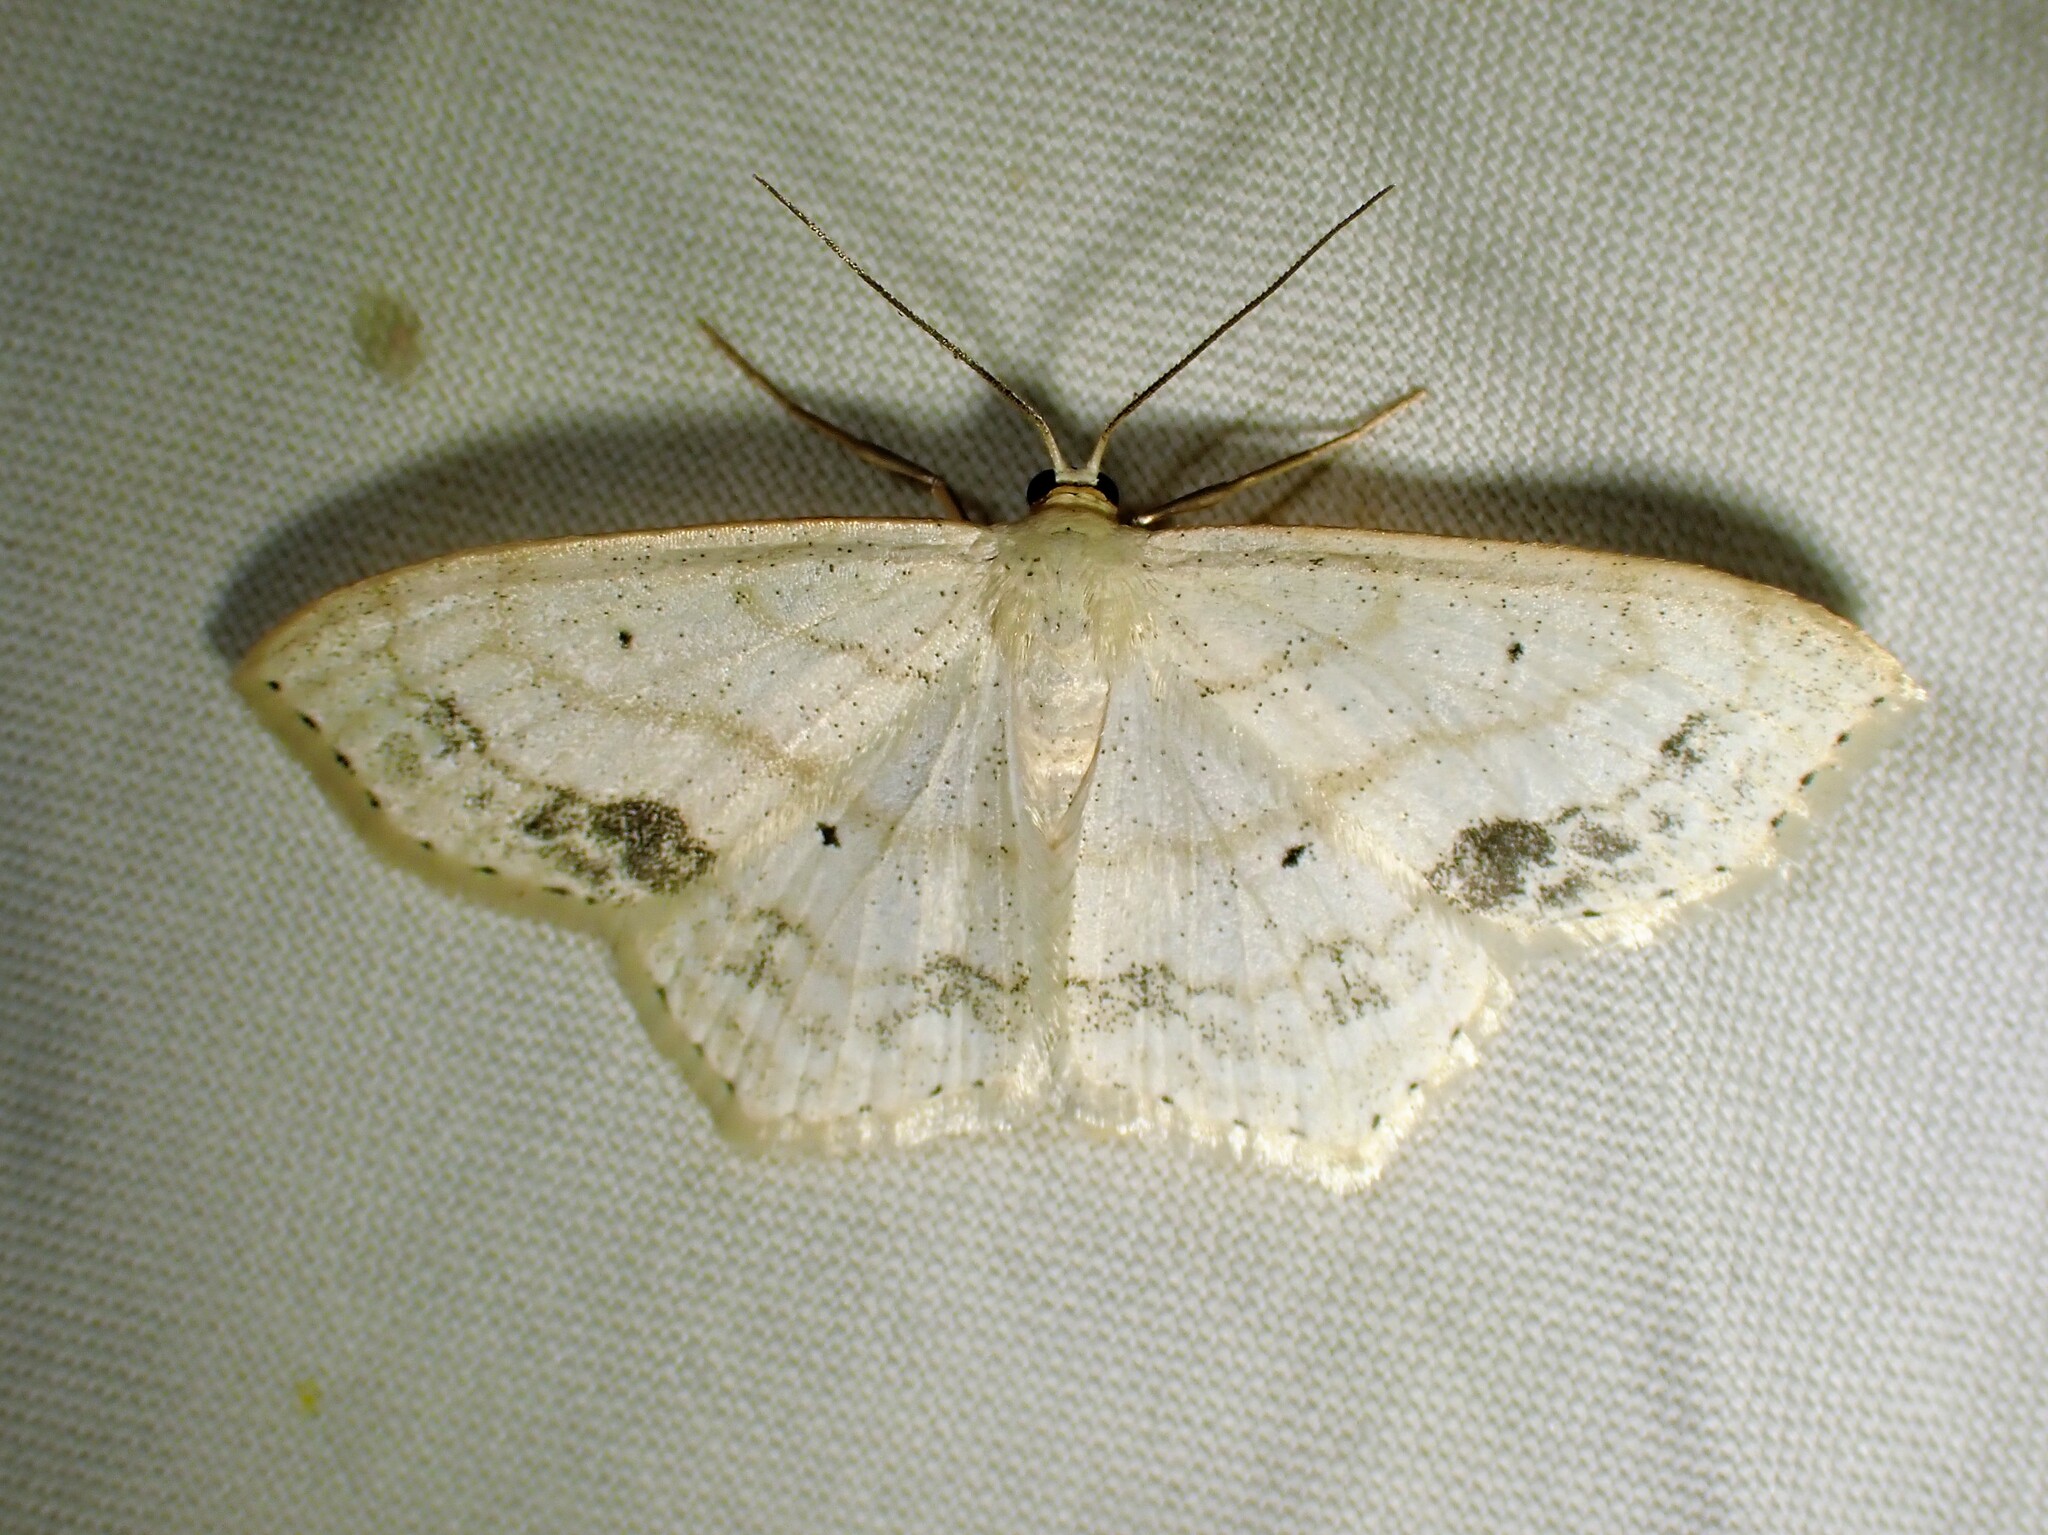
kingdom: Animalia
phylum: Arthropoda
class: Insecta
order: Lepidoptera
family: Geometridae
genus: Scopula
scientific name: Scopula limboundata
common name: Large lace border
